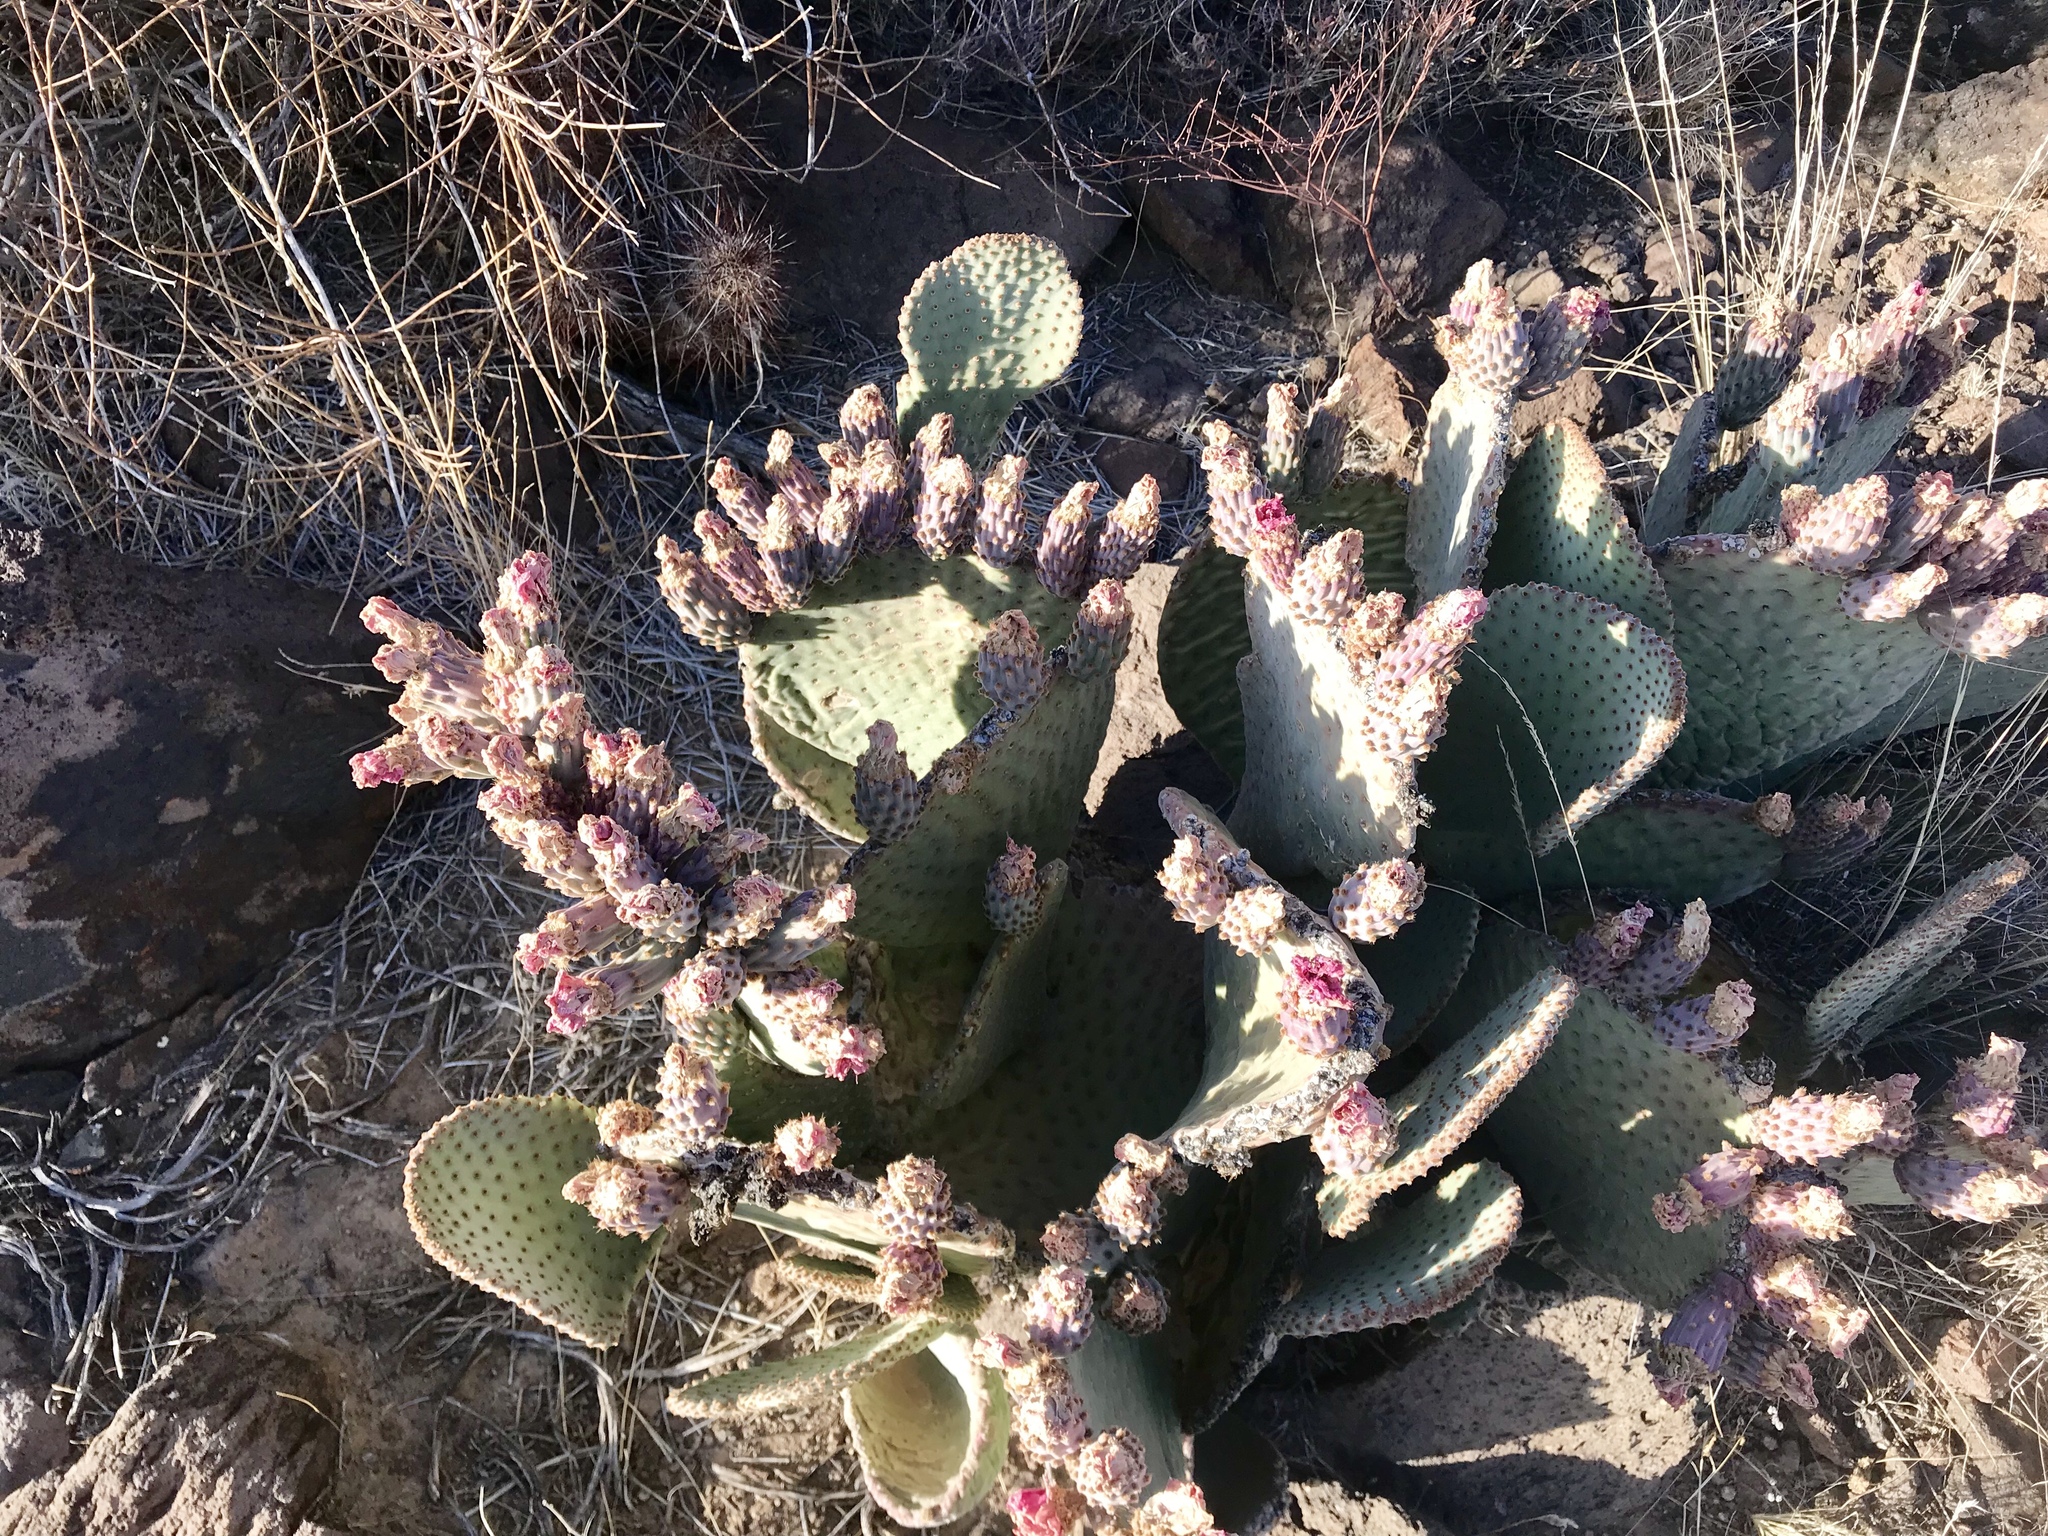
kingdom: Plantae
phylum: Tracheophyta
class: Magnoliopsida
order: Caryophyllales
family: Cactaceae
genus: Opuntia
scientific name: Opuntia basilaris
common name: Beavertail prickly-pear
